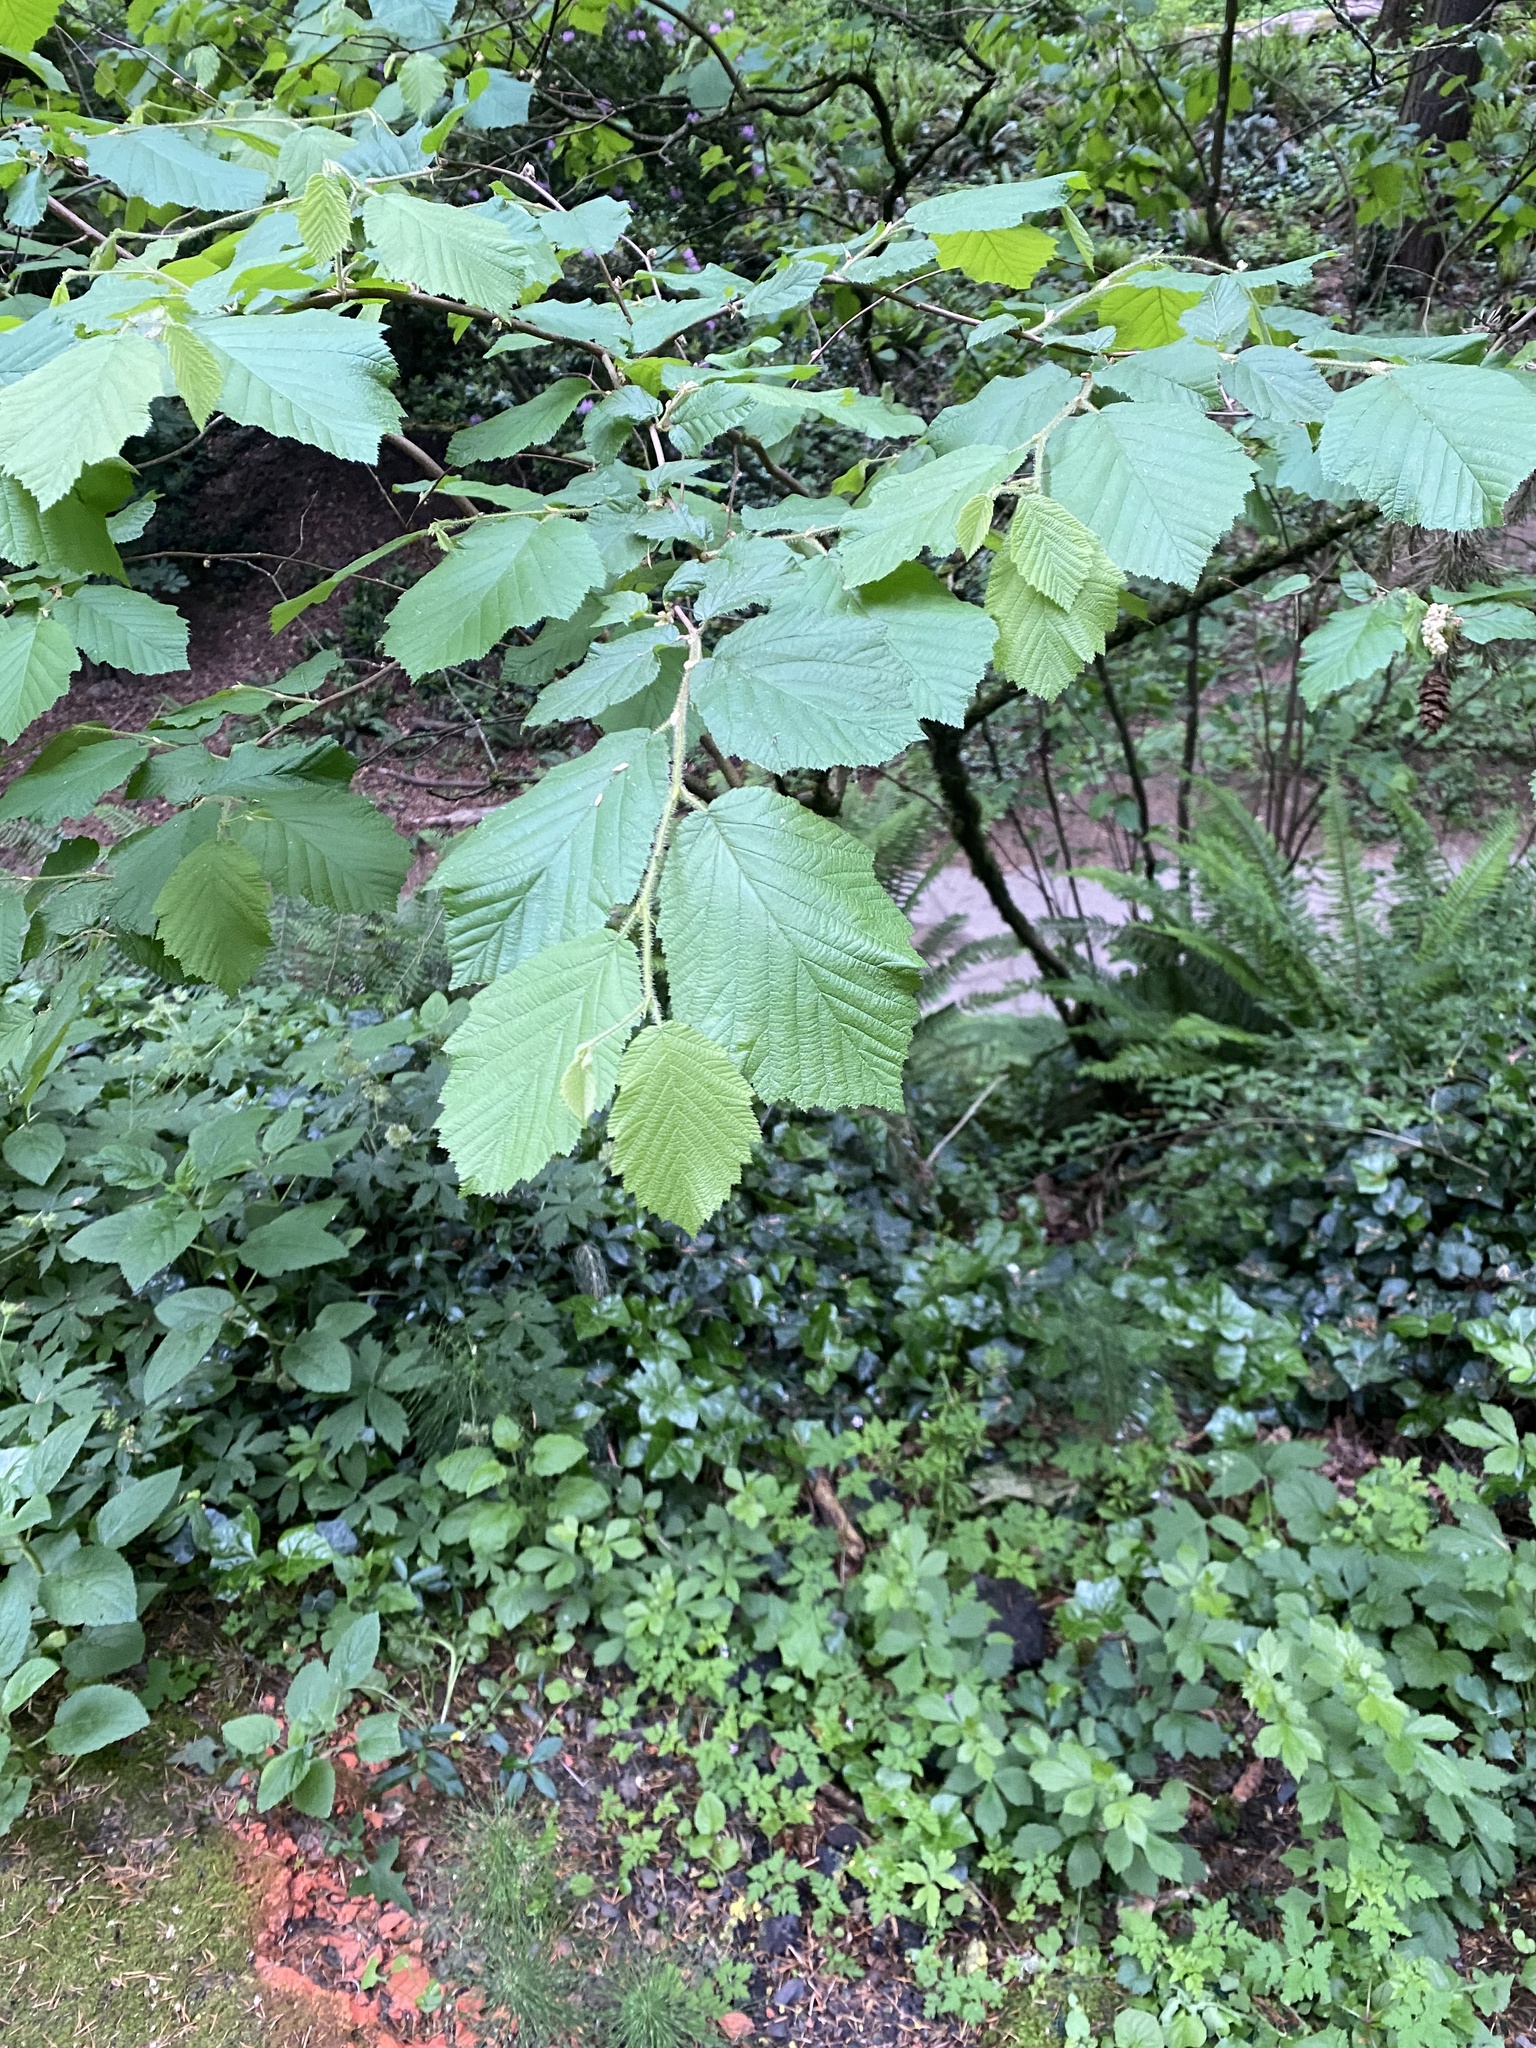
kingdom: Plantae
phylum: Tracheophyta
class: Magnoliopsida
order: Fagales
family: Betulaceae
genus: Corylus
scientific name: Corylus cornuta
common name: Beaked hazel
